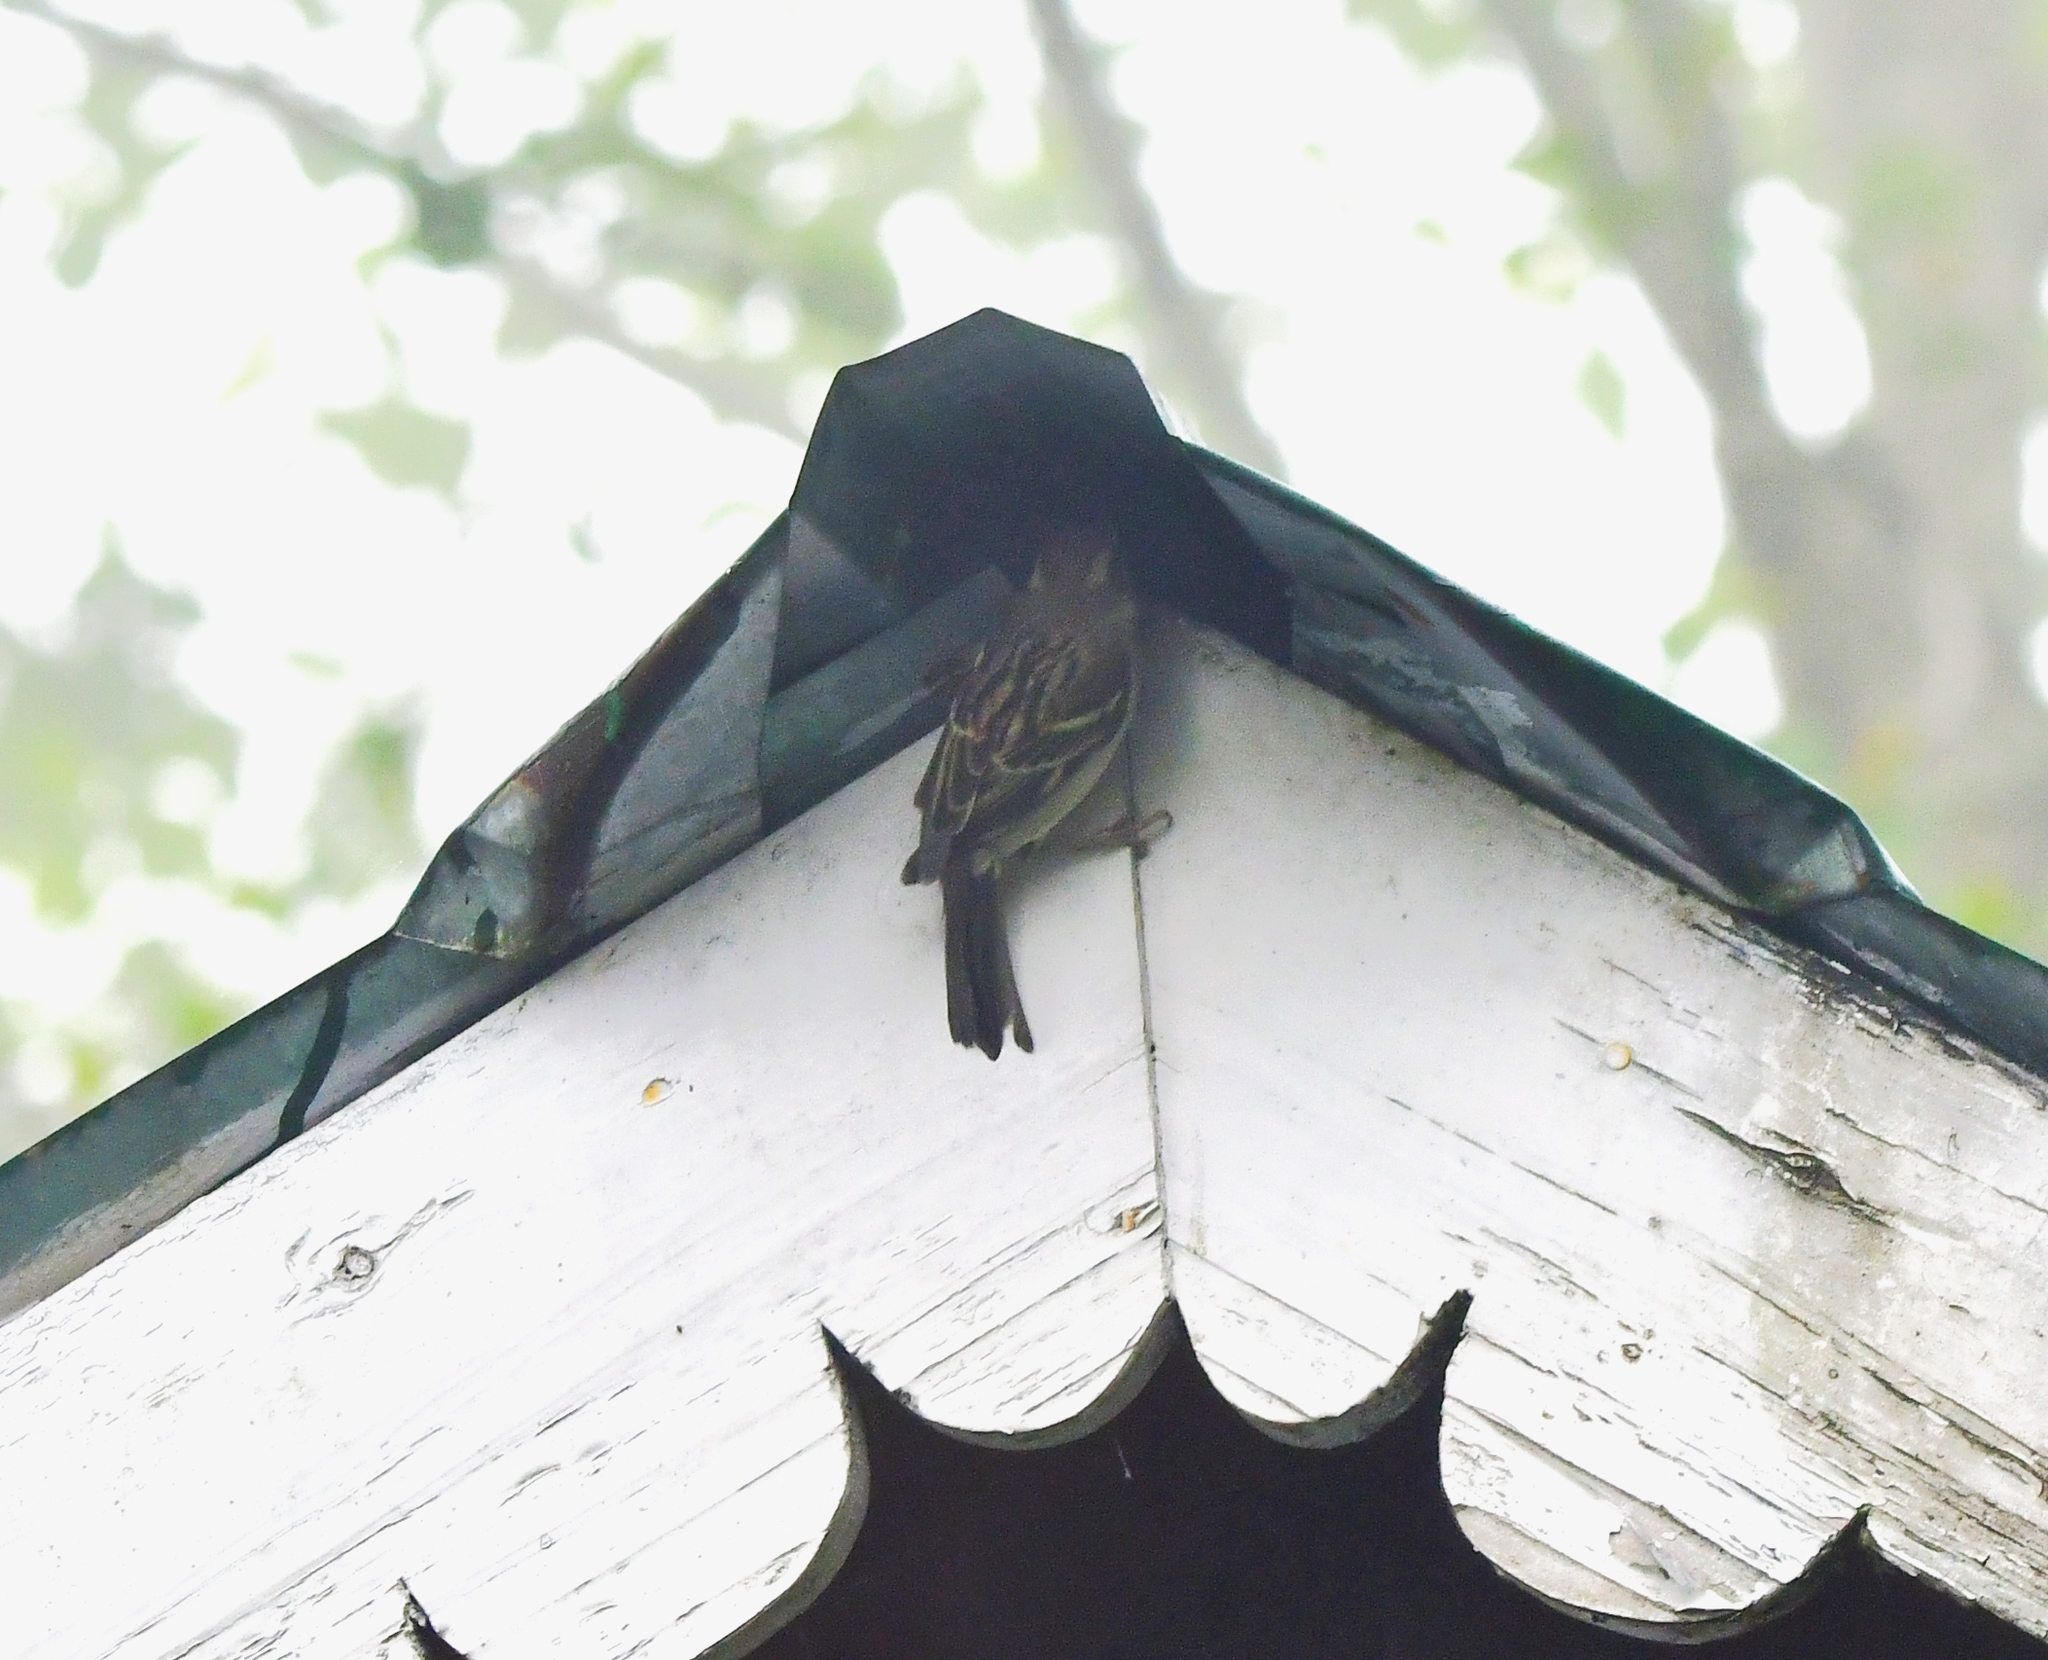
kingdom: Animalia
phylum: Chordata
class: Aves
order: Passeriformes
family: Passeridae
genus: Passer
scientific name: Passer cinnamomeus
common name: Russet sparrow
